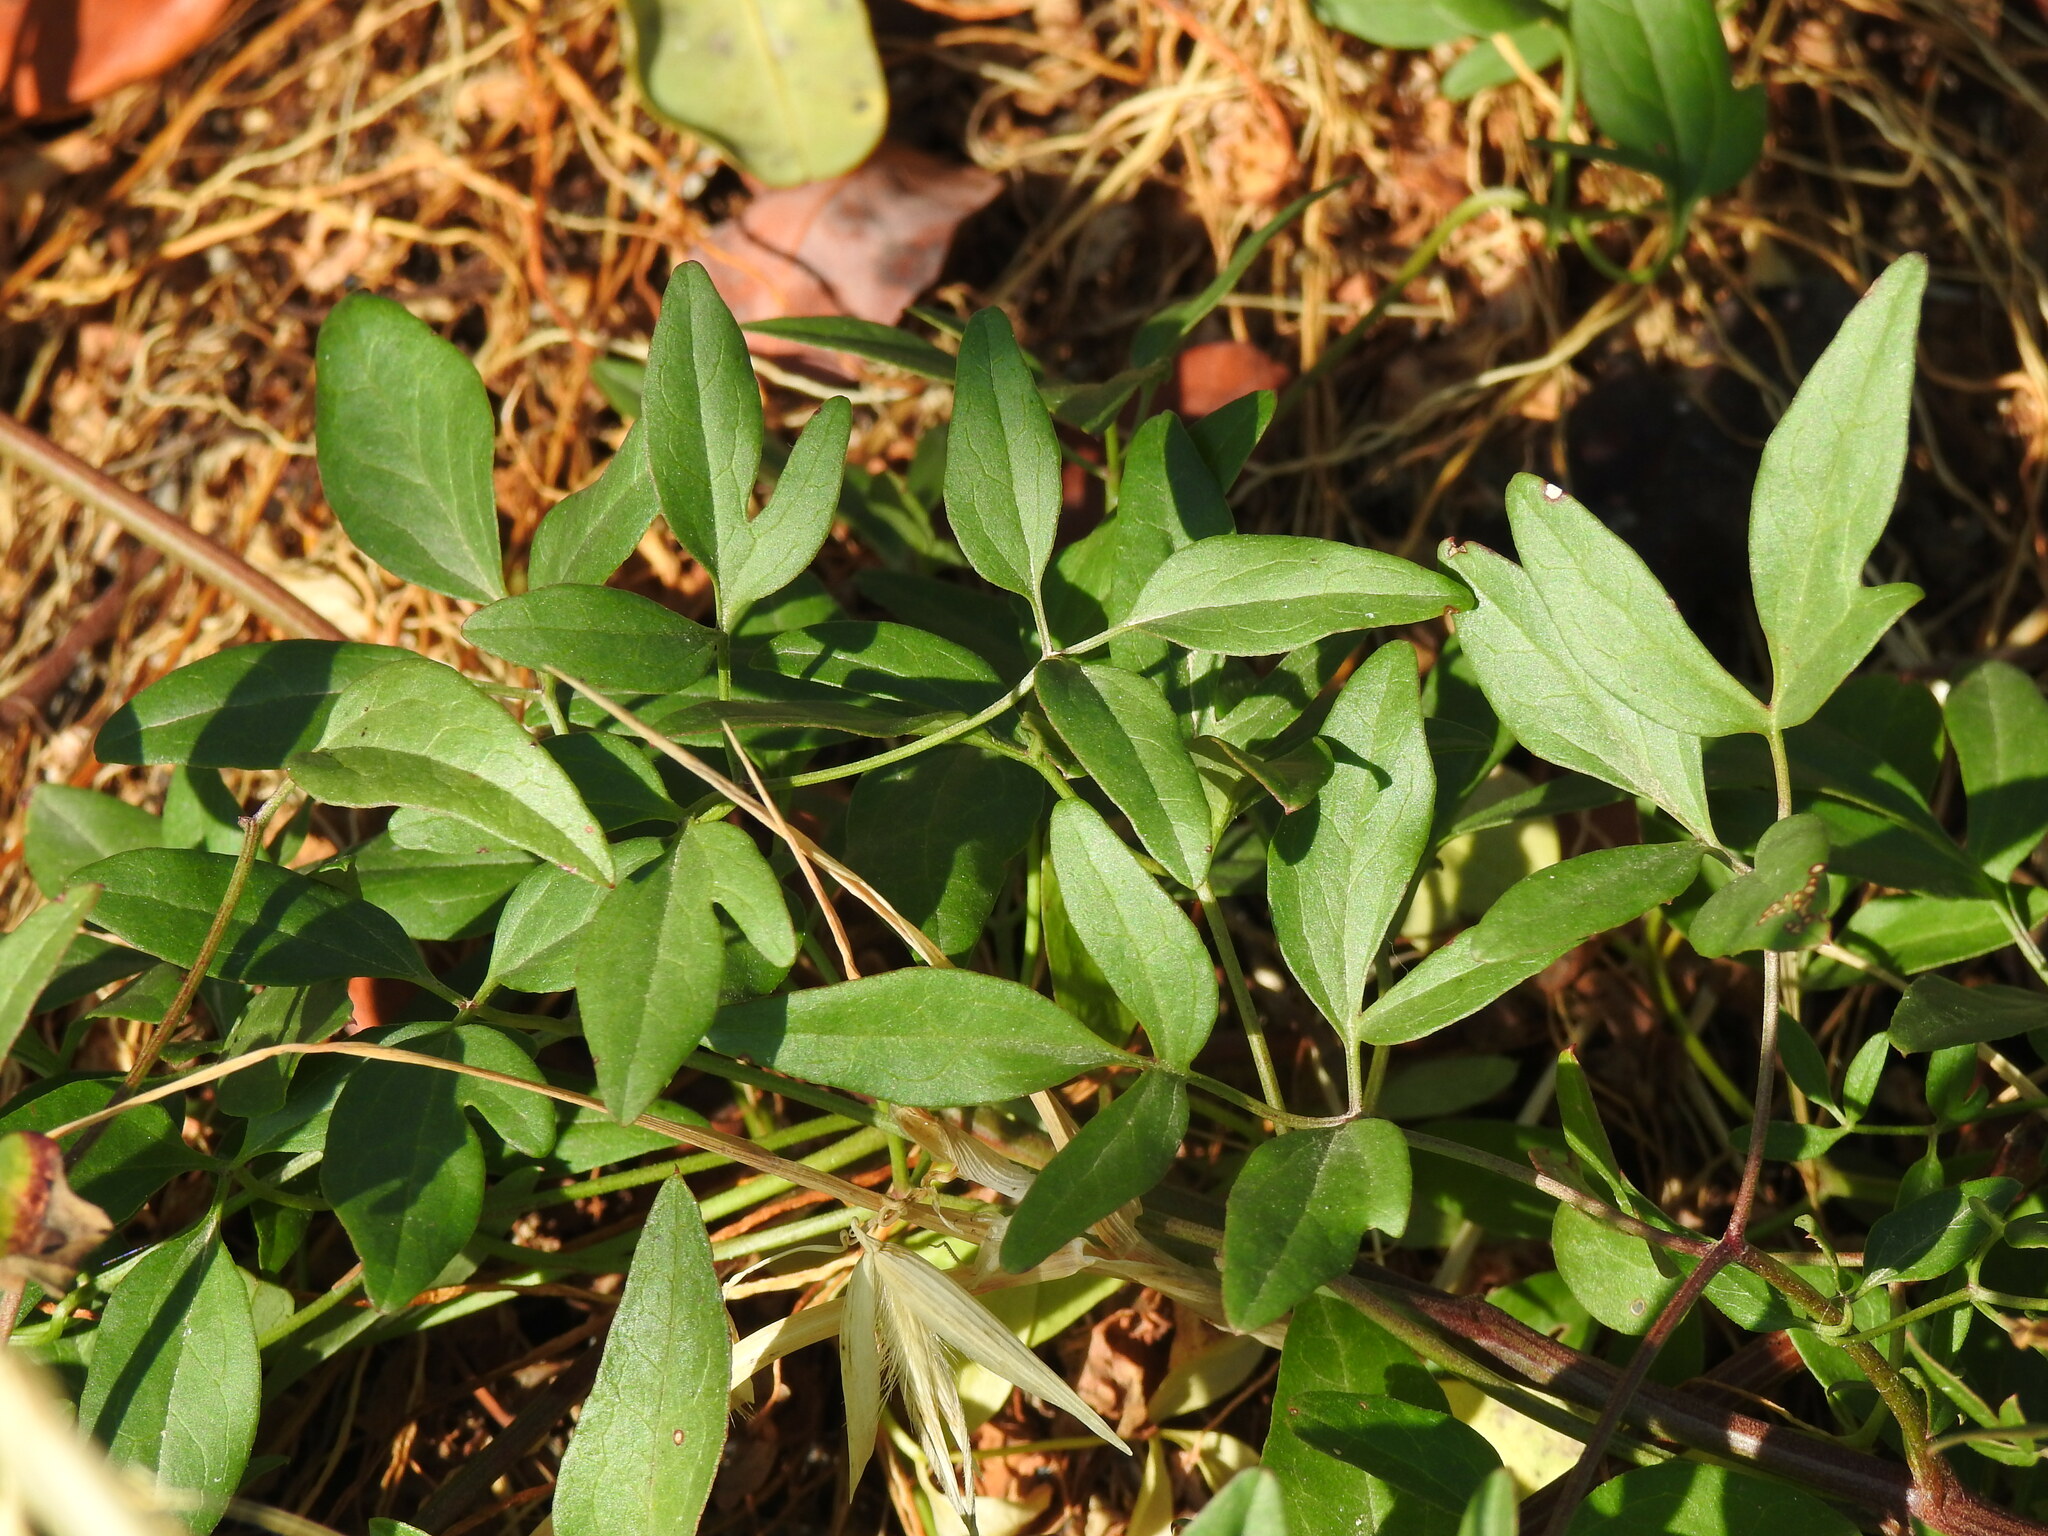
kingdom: Plantae
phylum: Tracheophyta
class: Magnoliopsida
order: Ranunculales
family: Ranunculaceae
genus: Clematis
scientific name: Clematis flammula
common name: Virgin's-bower
